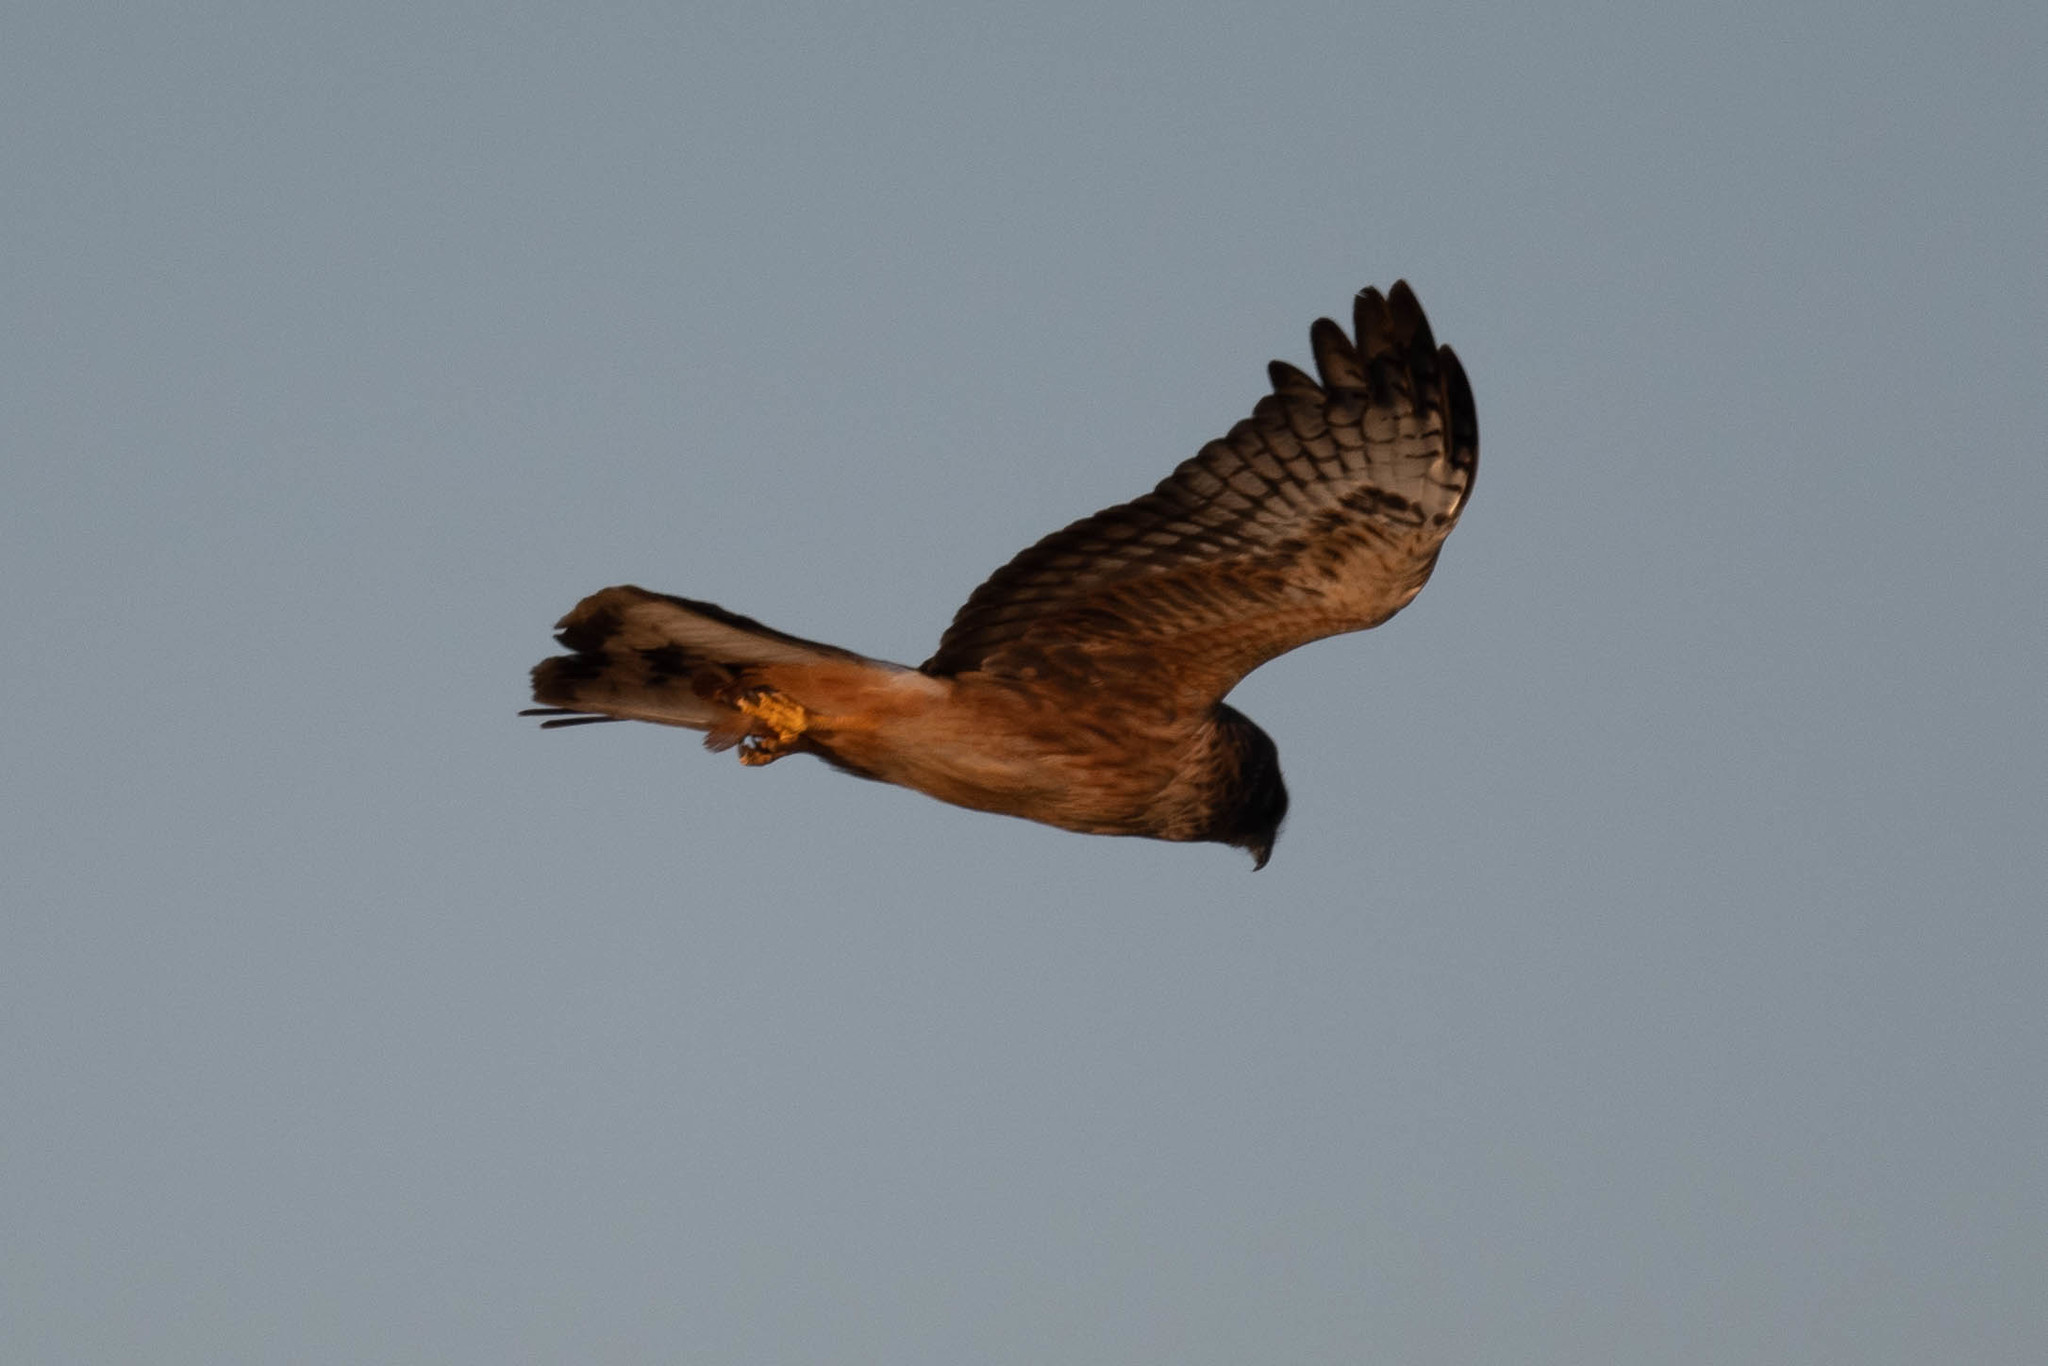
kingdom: Animalia
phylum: Chordata
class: Aves
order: Accipitriformes
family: Accipitridae
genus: Circus
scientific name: Circus cyaneus
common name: Hen harrier
